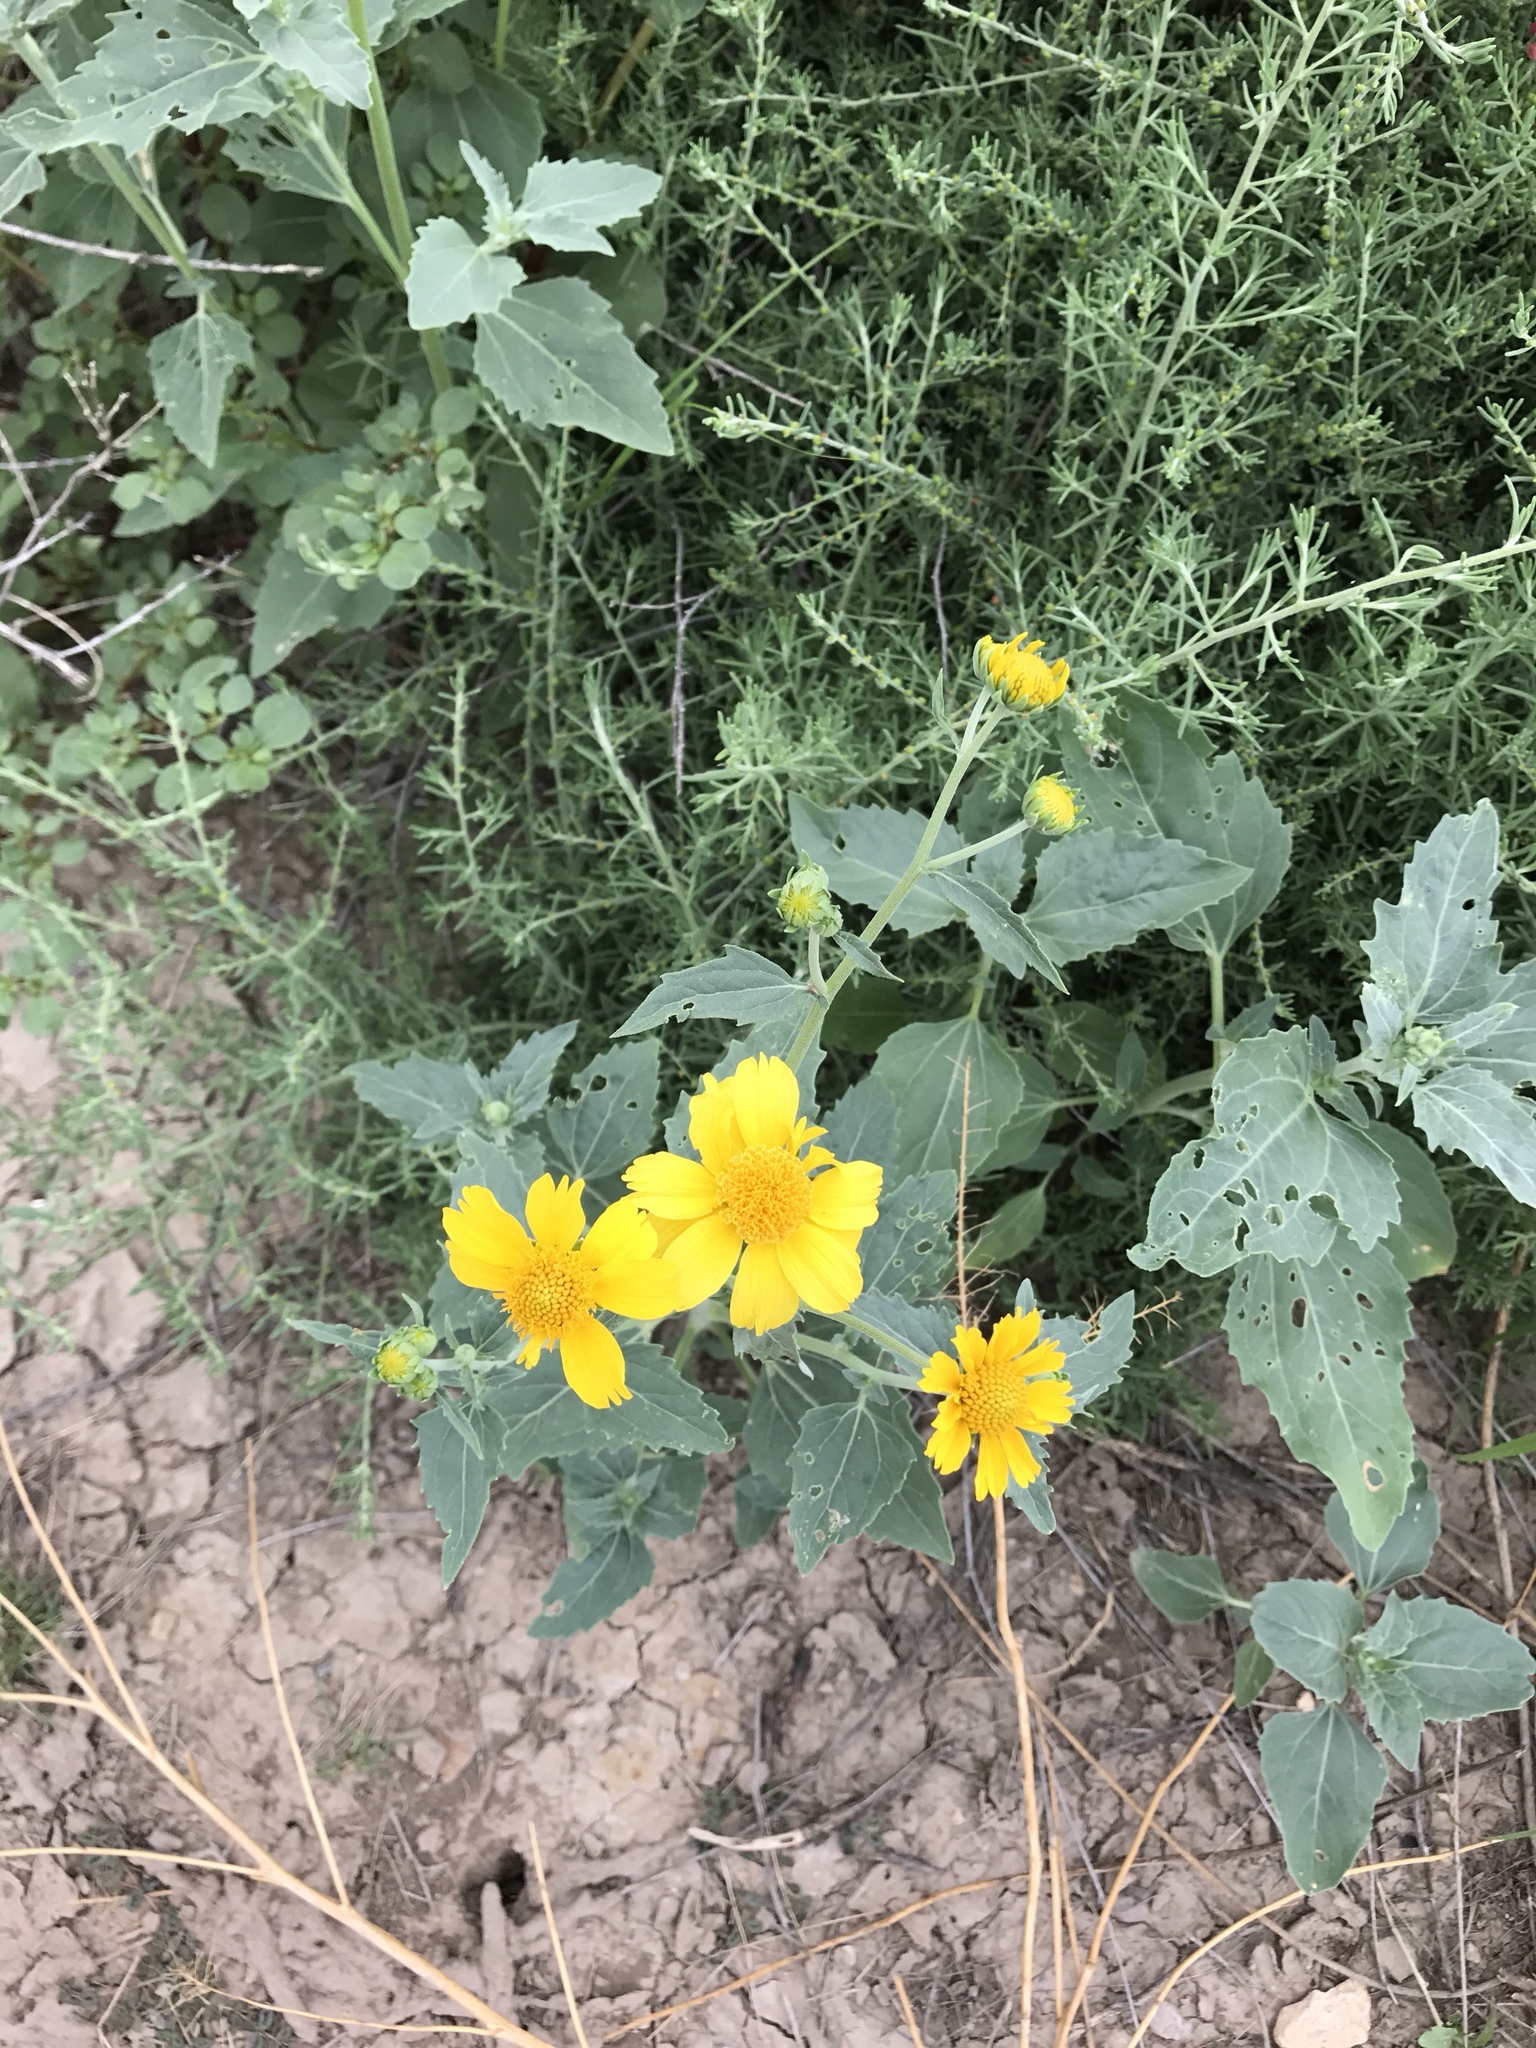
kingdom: Plantae
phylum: Tracheophyta
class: Magnoliopsida
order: Asterales
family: Asteraceae
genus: Verbesina
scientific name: Verbesina encelioides
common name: Golden crownbeard
